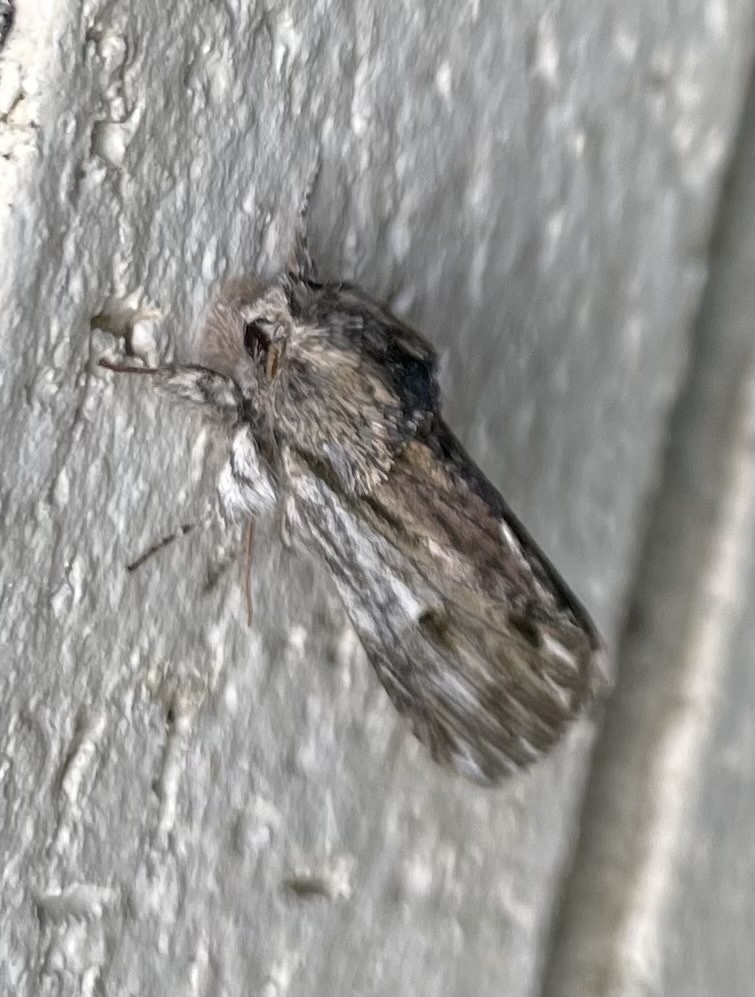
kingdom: Animalia
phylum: Arthropoda
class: Insecta
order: Lepidoptera
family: Notodontidae
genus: Oligocentria
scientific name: Oligocentria Ianassa lignicolor
